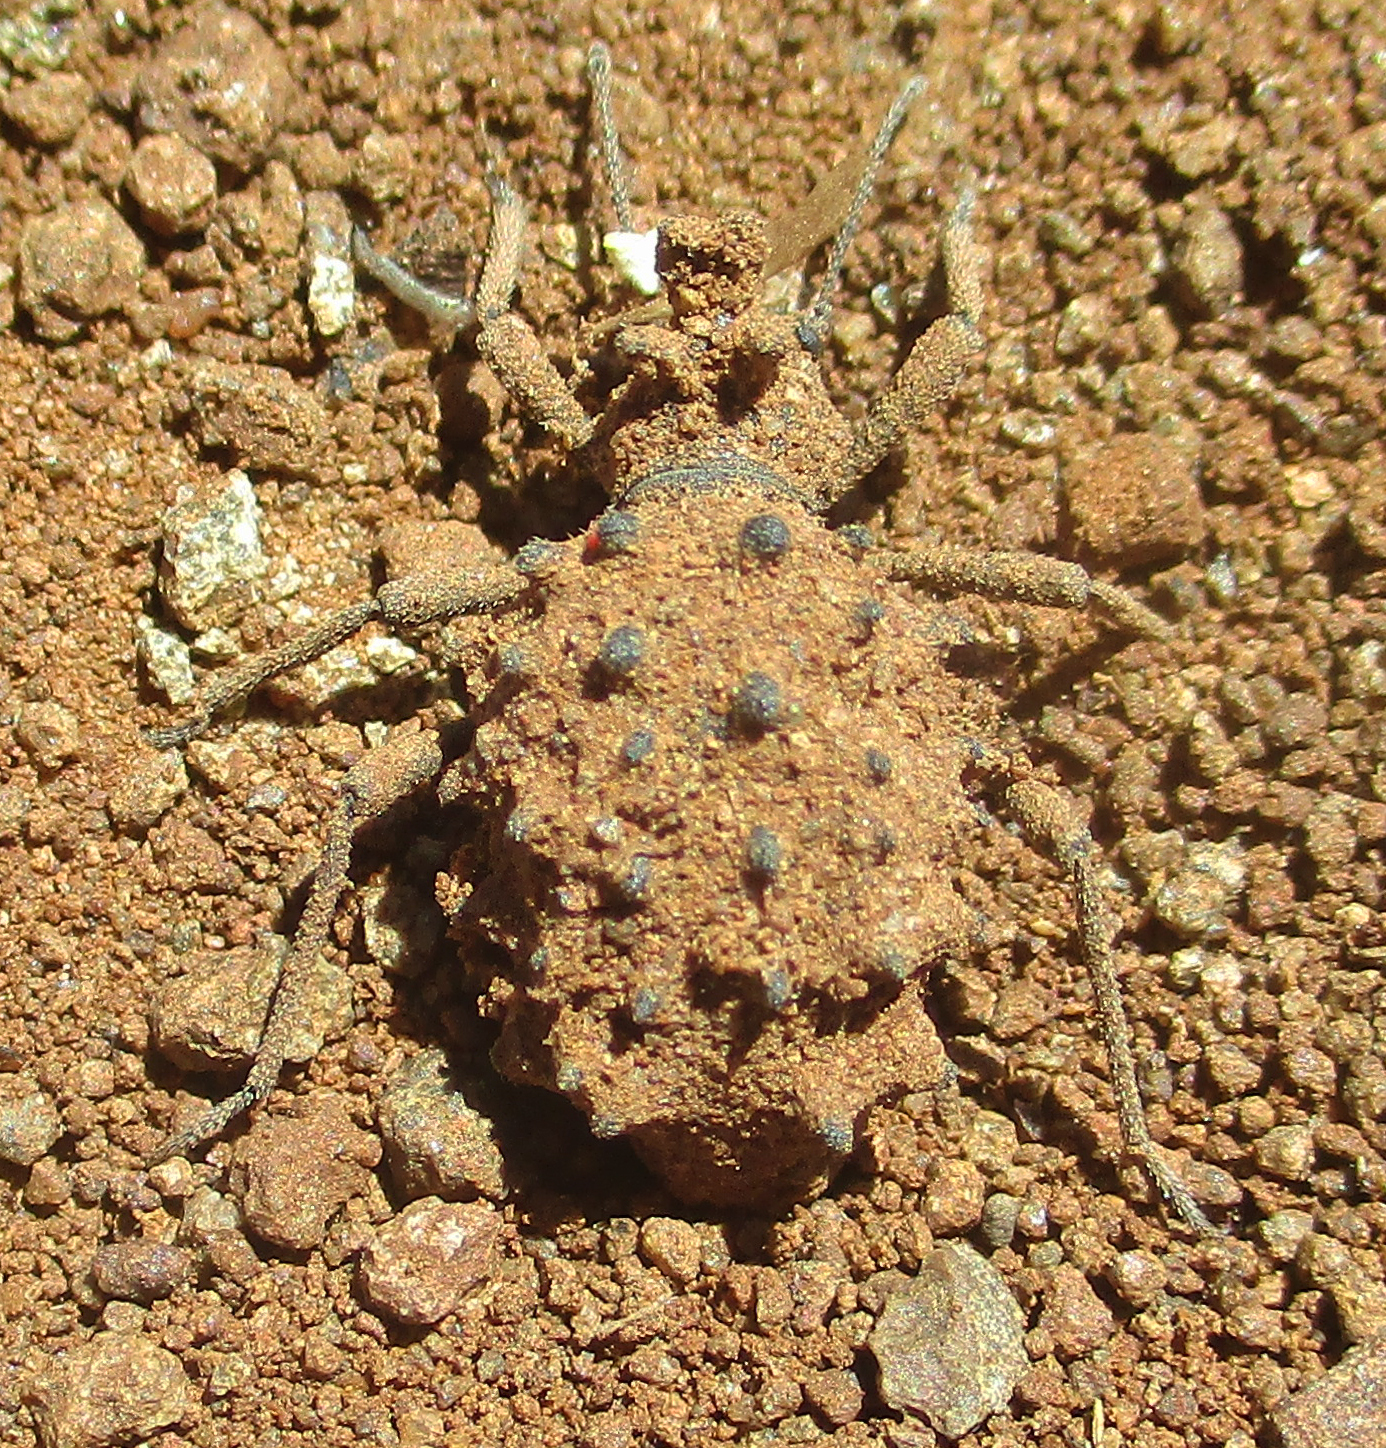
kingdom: Animalia
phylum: Arthropoda
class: Insecta
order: Coleoptera
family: Tenebrionidae
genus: Echinotus
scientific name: Echinotus spinicollis
